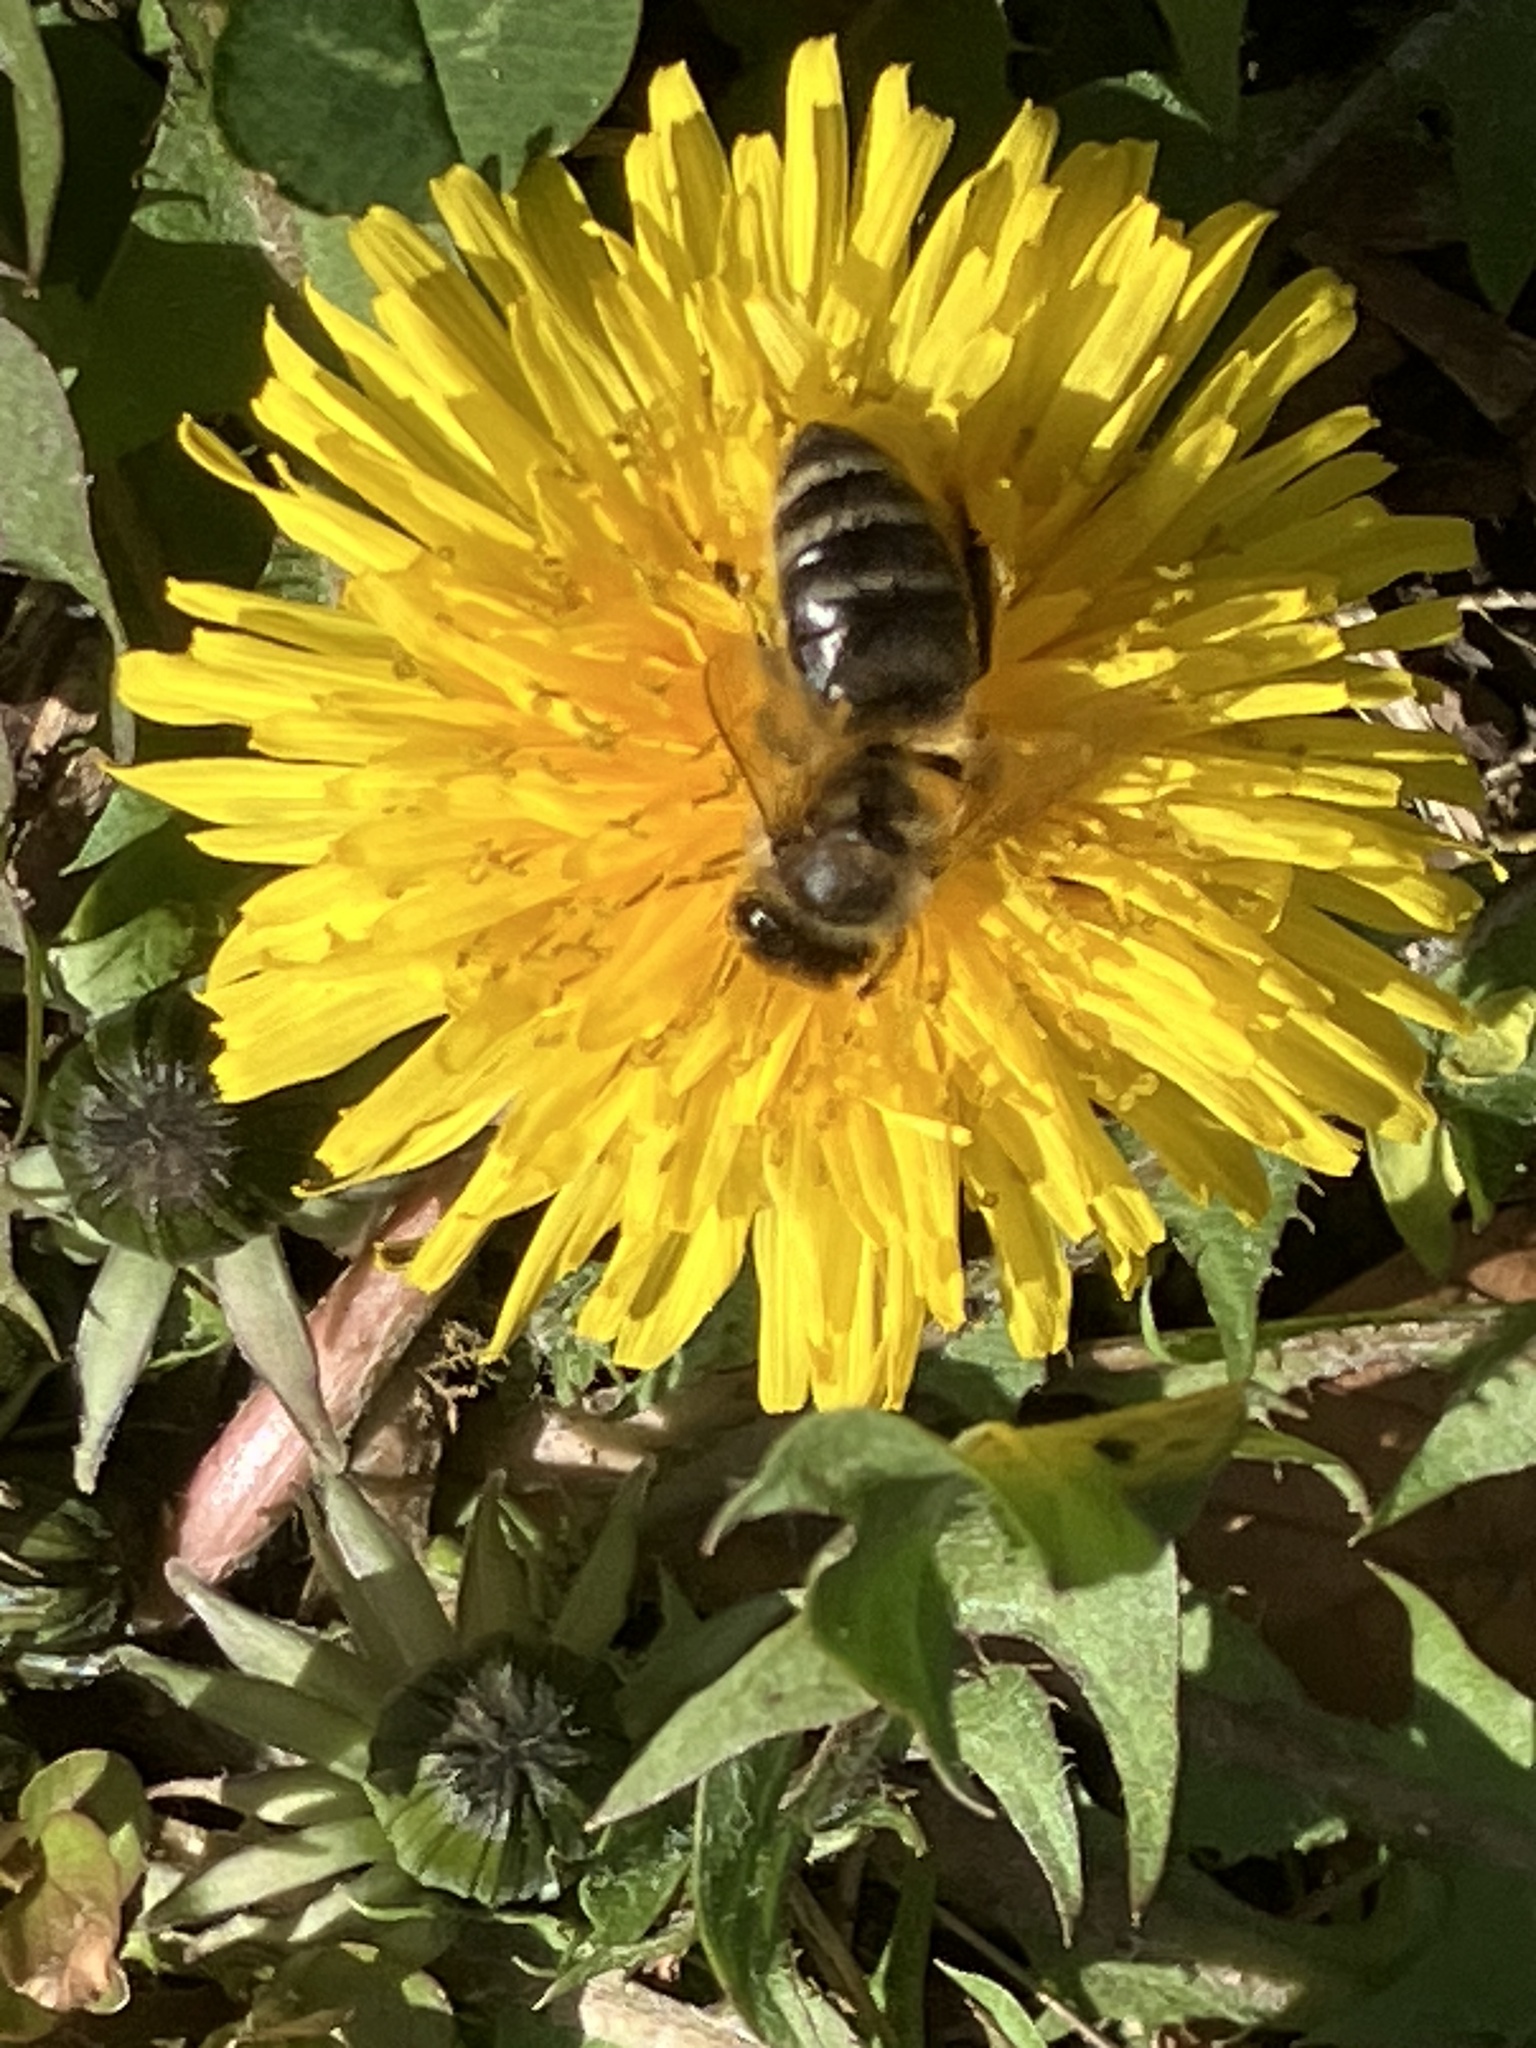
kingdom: Animalia
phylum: Arthropoda
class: Insecta
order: Hymenoptera
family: Apidae
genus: Apis
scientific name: Apis mellifera
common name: Honey bee
